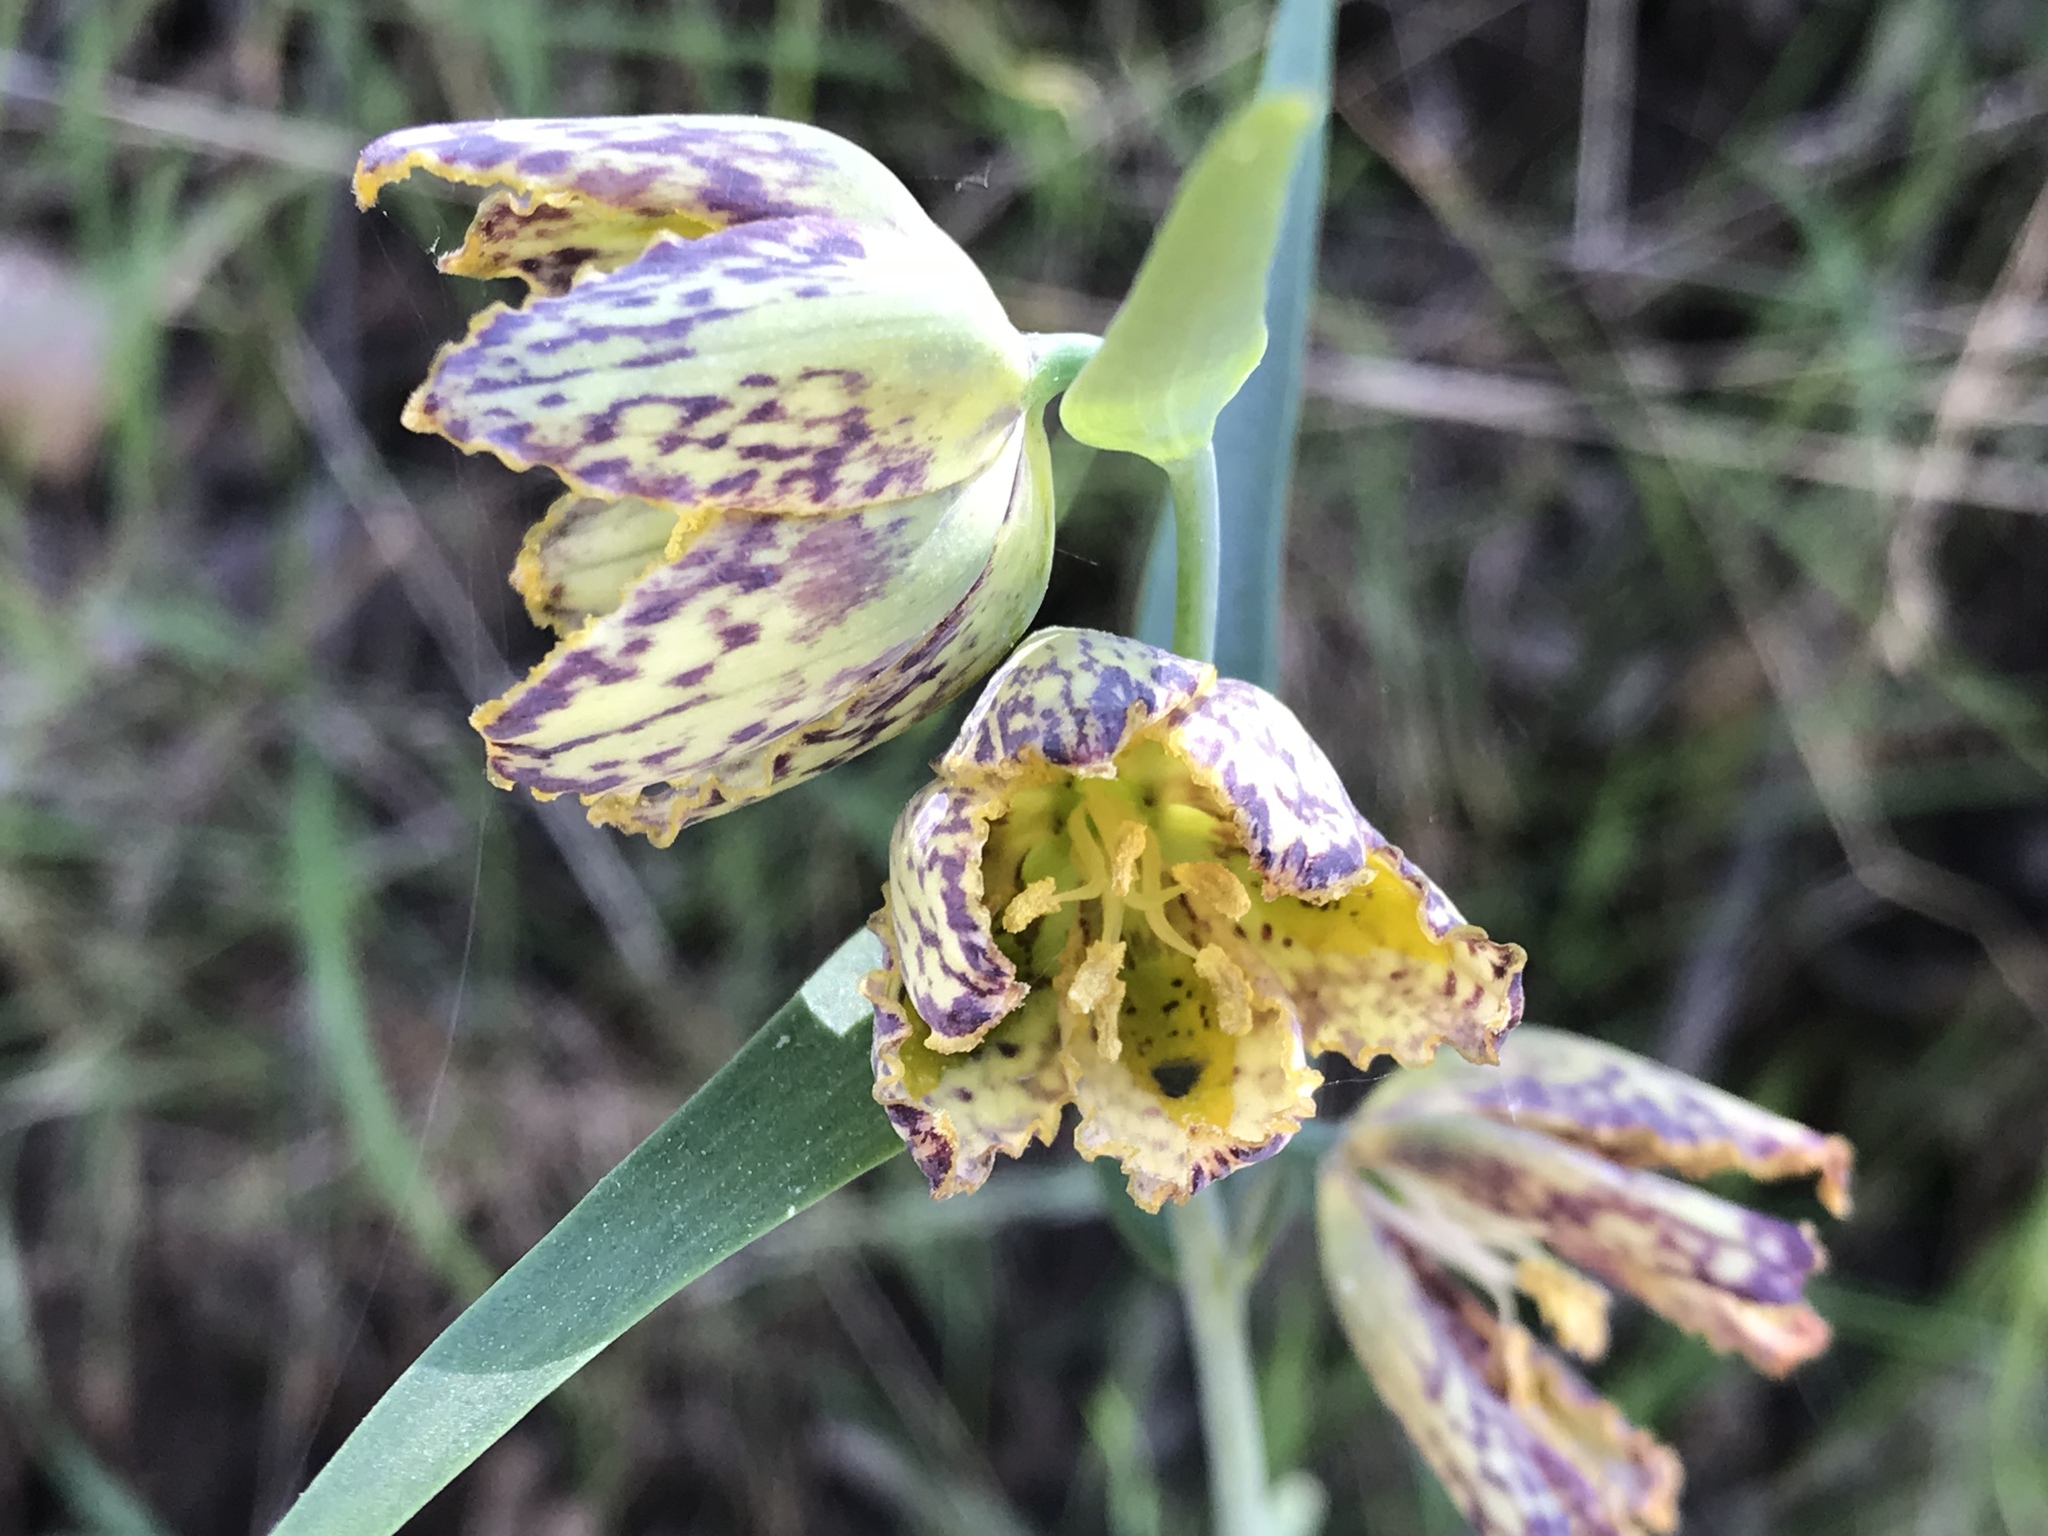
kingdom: Plantae
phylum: Tracheophyta
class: Liliopsida
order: Liliales
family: Liliaceae
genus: Fritillaria
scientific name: Fritillaria affinis
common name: Ojai fritillary
